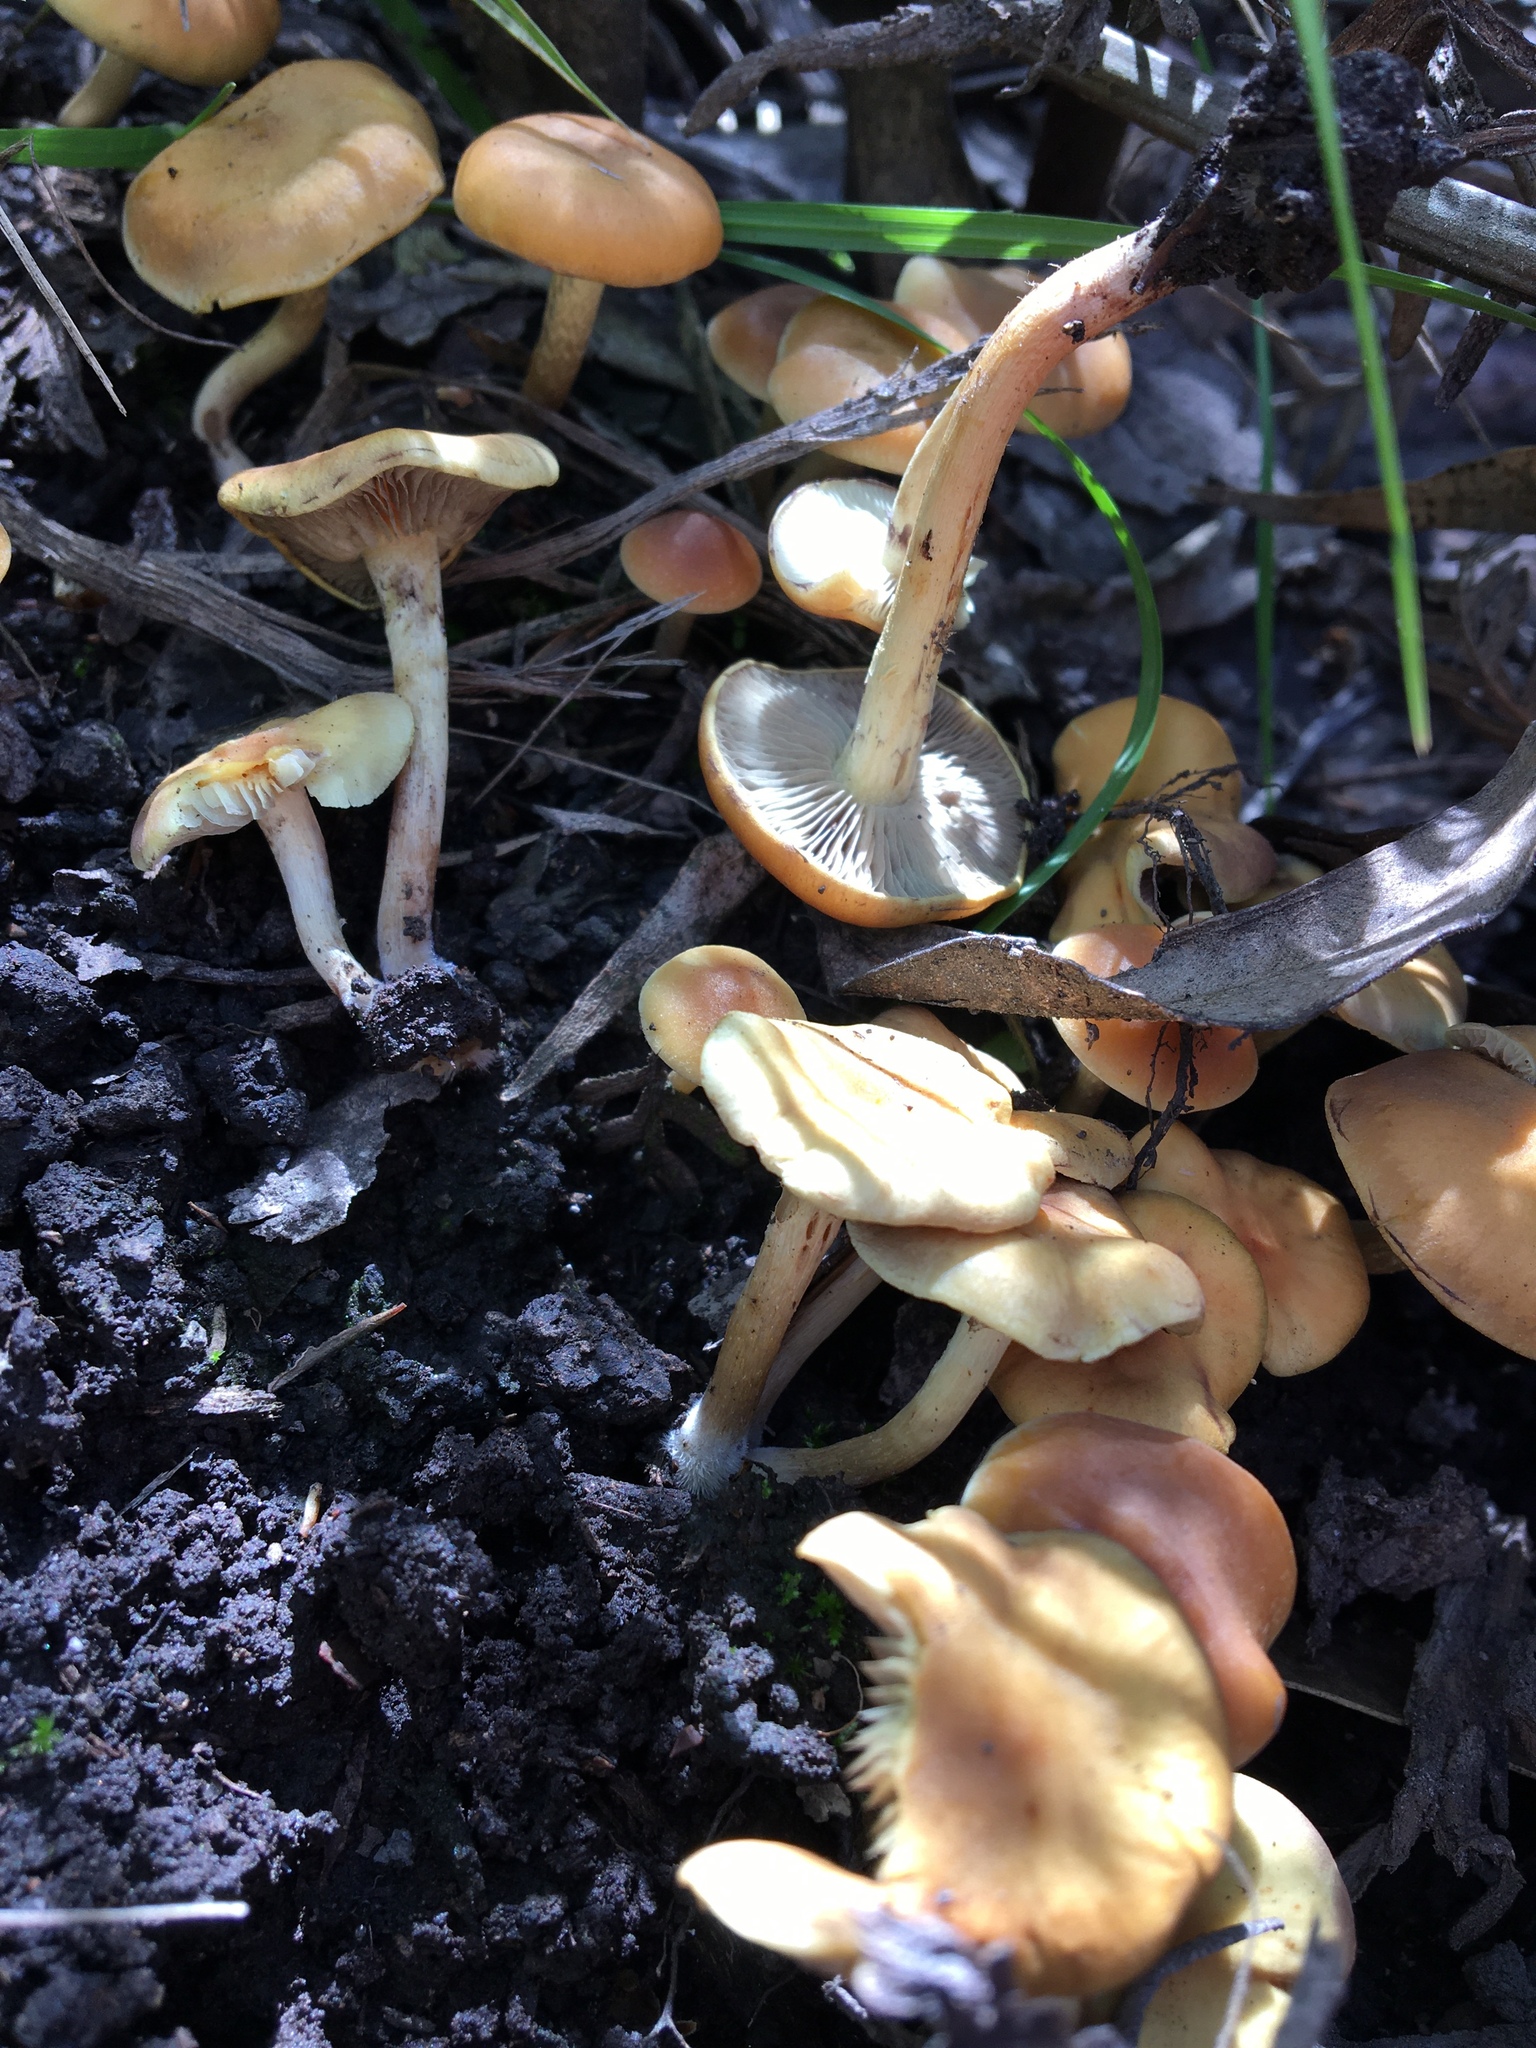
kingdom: Fungi
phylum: Basidiomycota
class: Agaricomycetes
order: Agaricales
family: Strophariaceae
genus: Hypholoma
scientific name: Hypholoma fasciculare
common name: Sulphur tuft
